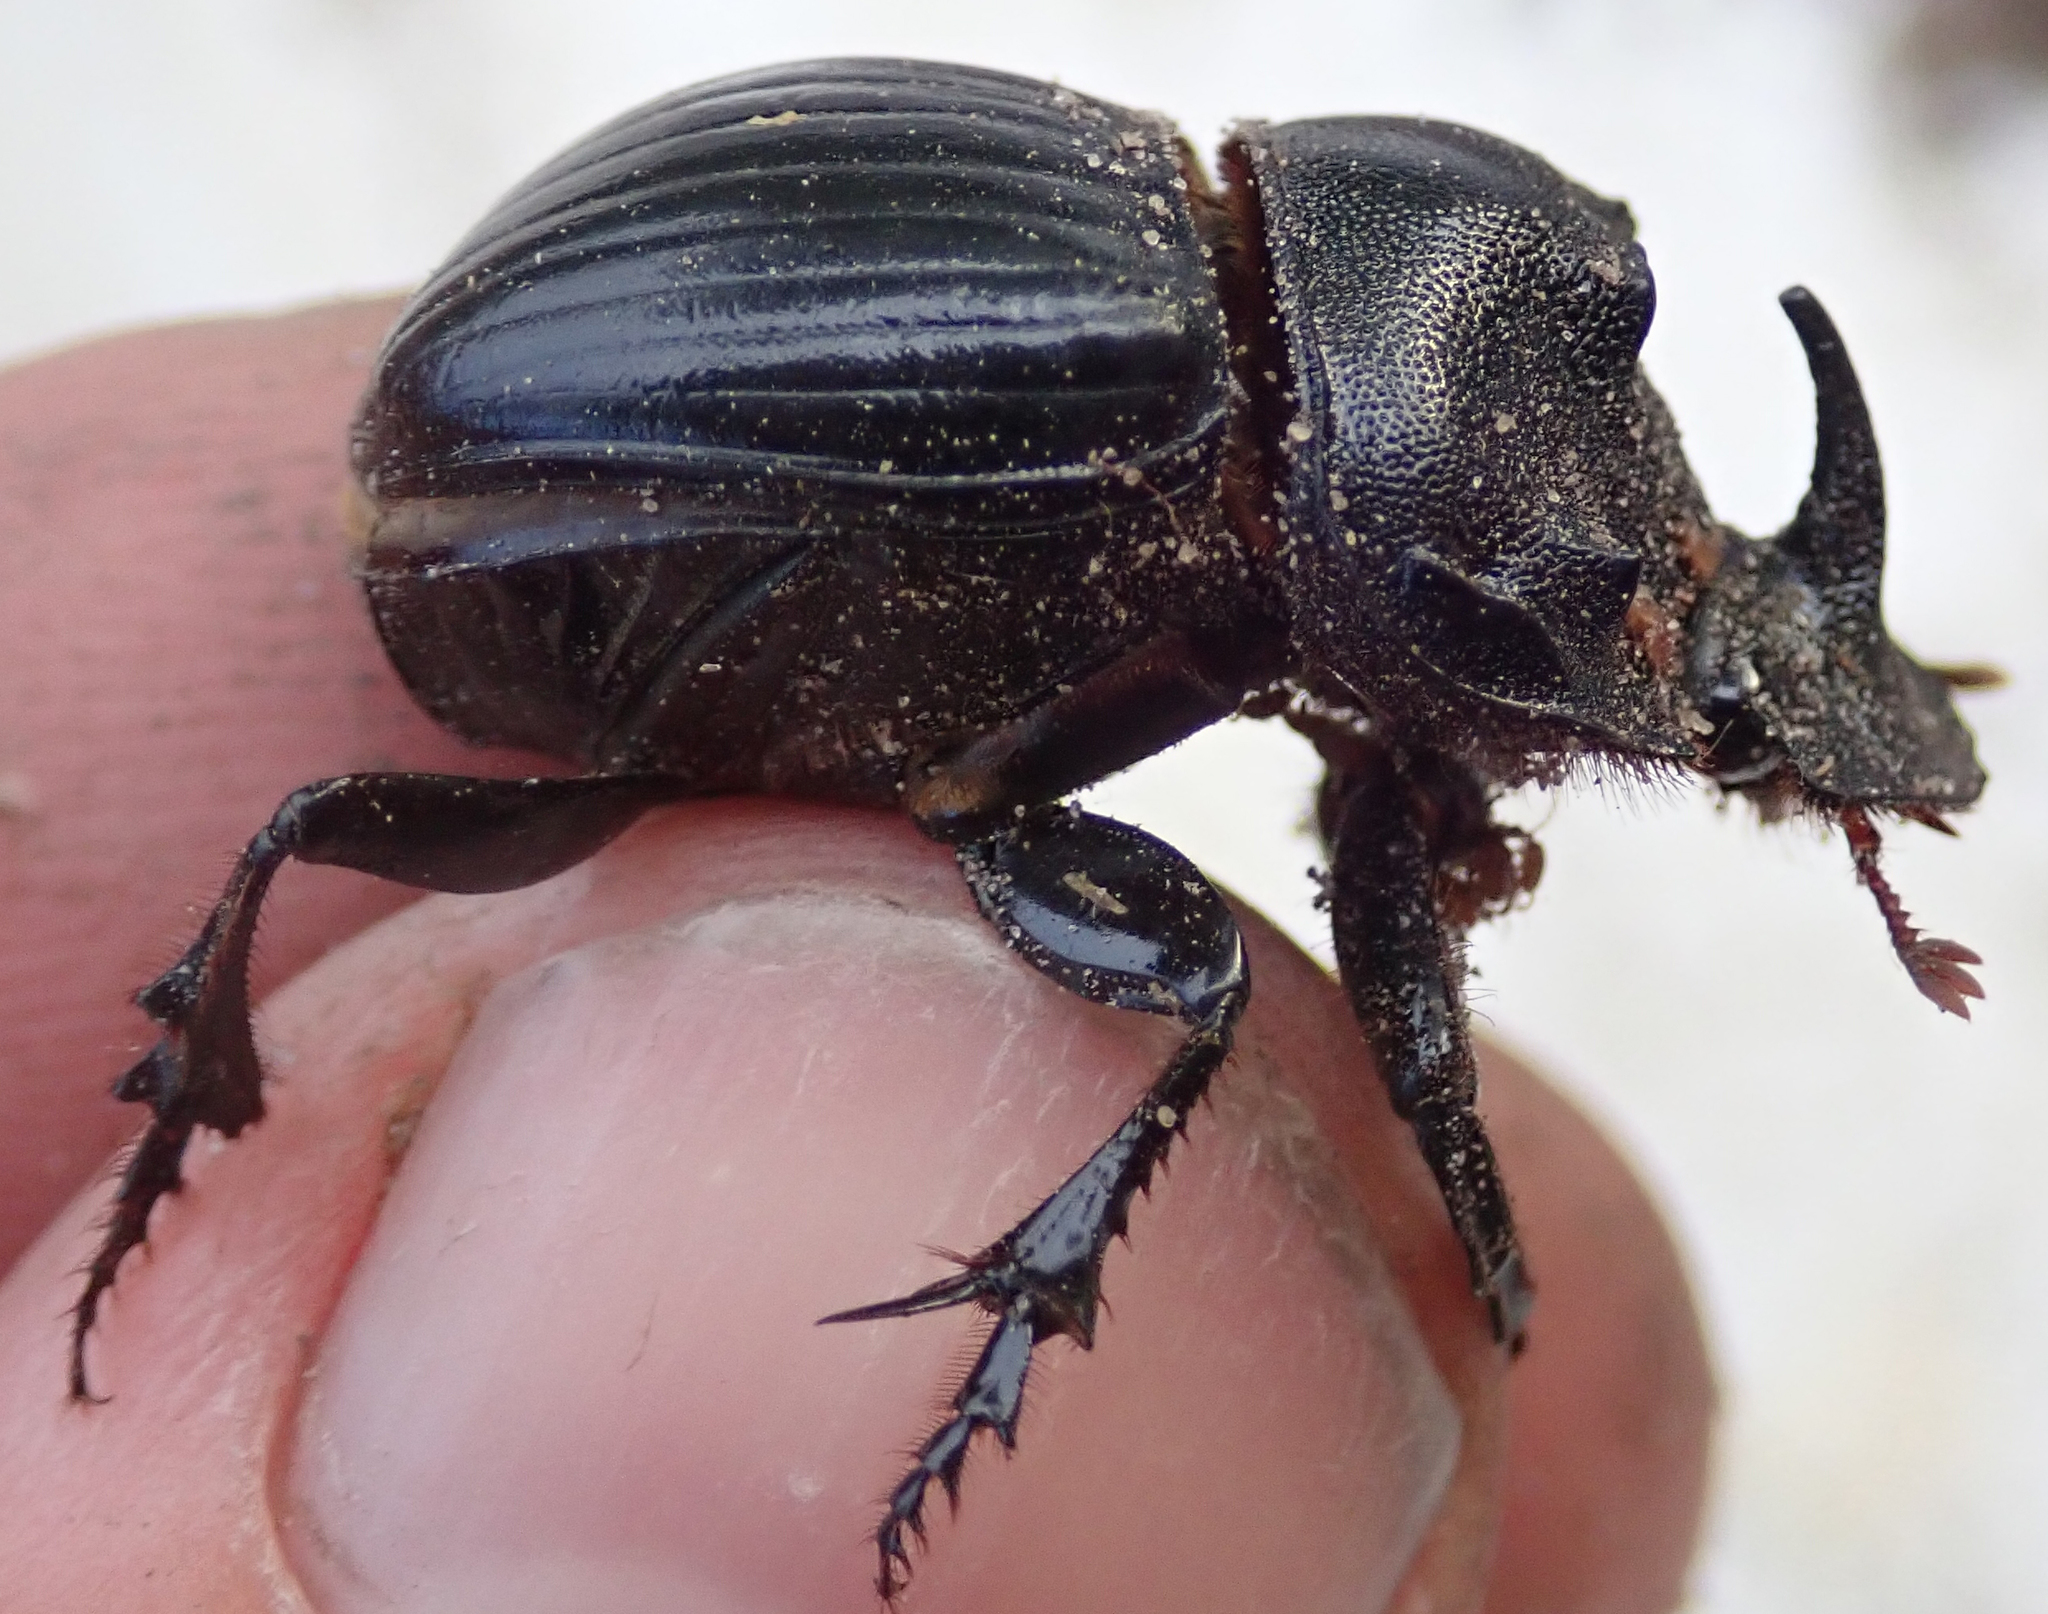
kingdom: Animalia
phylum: Arthropoda
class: Insecta
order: Coleoptera
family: Scarabaeidae
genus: Copris
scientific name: Copris elphenor
